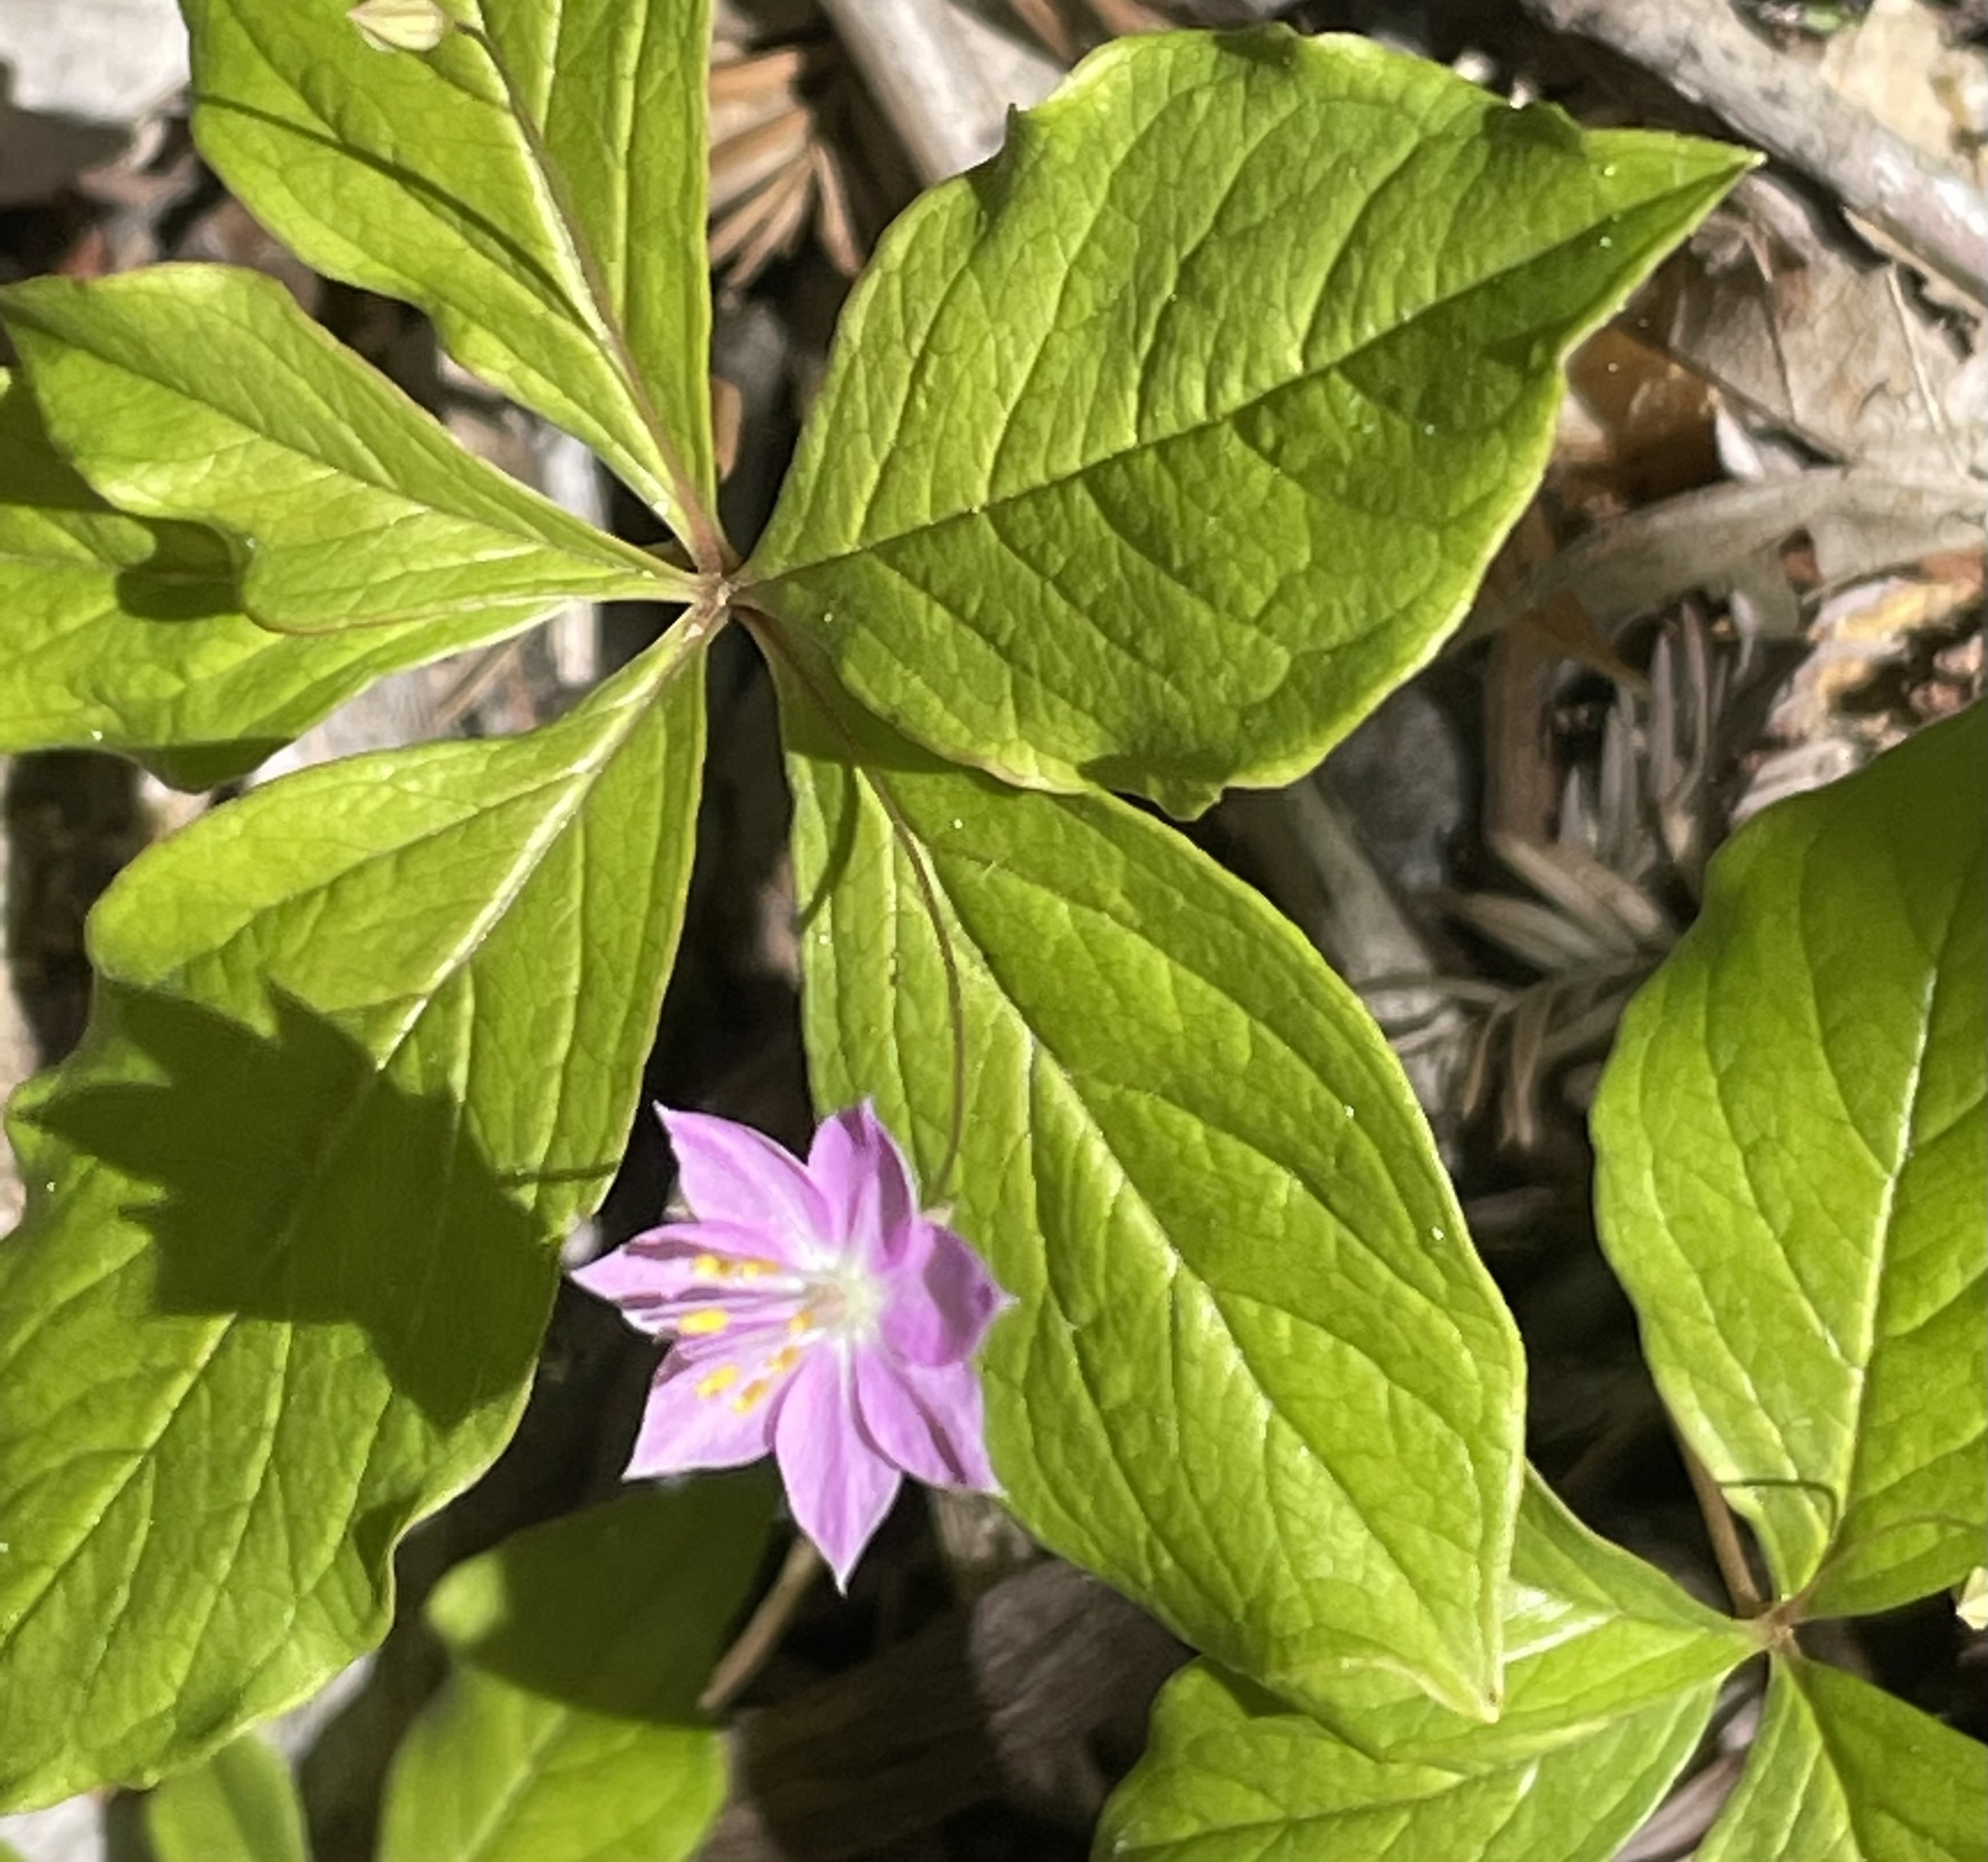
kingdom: Plantae
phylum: Tracheophyta
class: Magnoliopsida
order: Ericales
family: Primulaceae
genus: Lysimachia
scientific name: Lysimachia latifolia
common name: Pacific starflower
